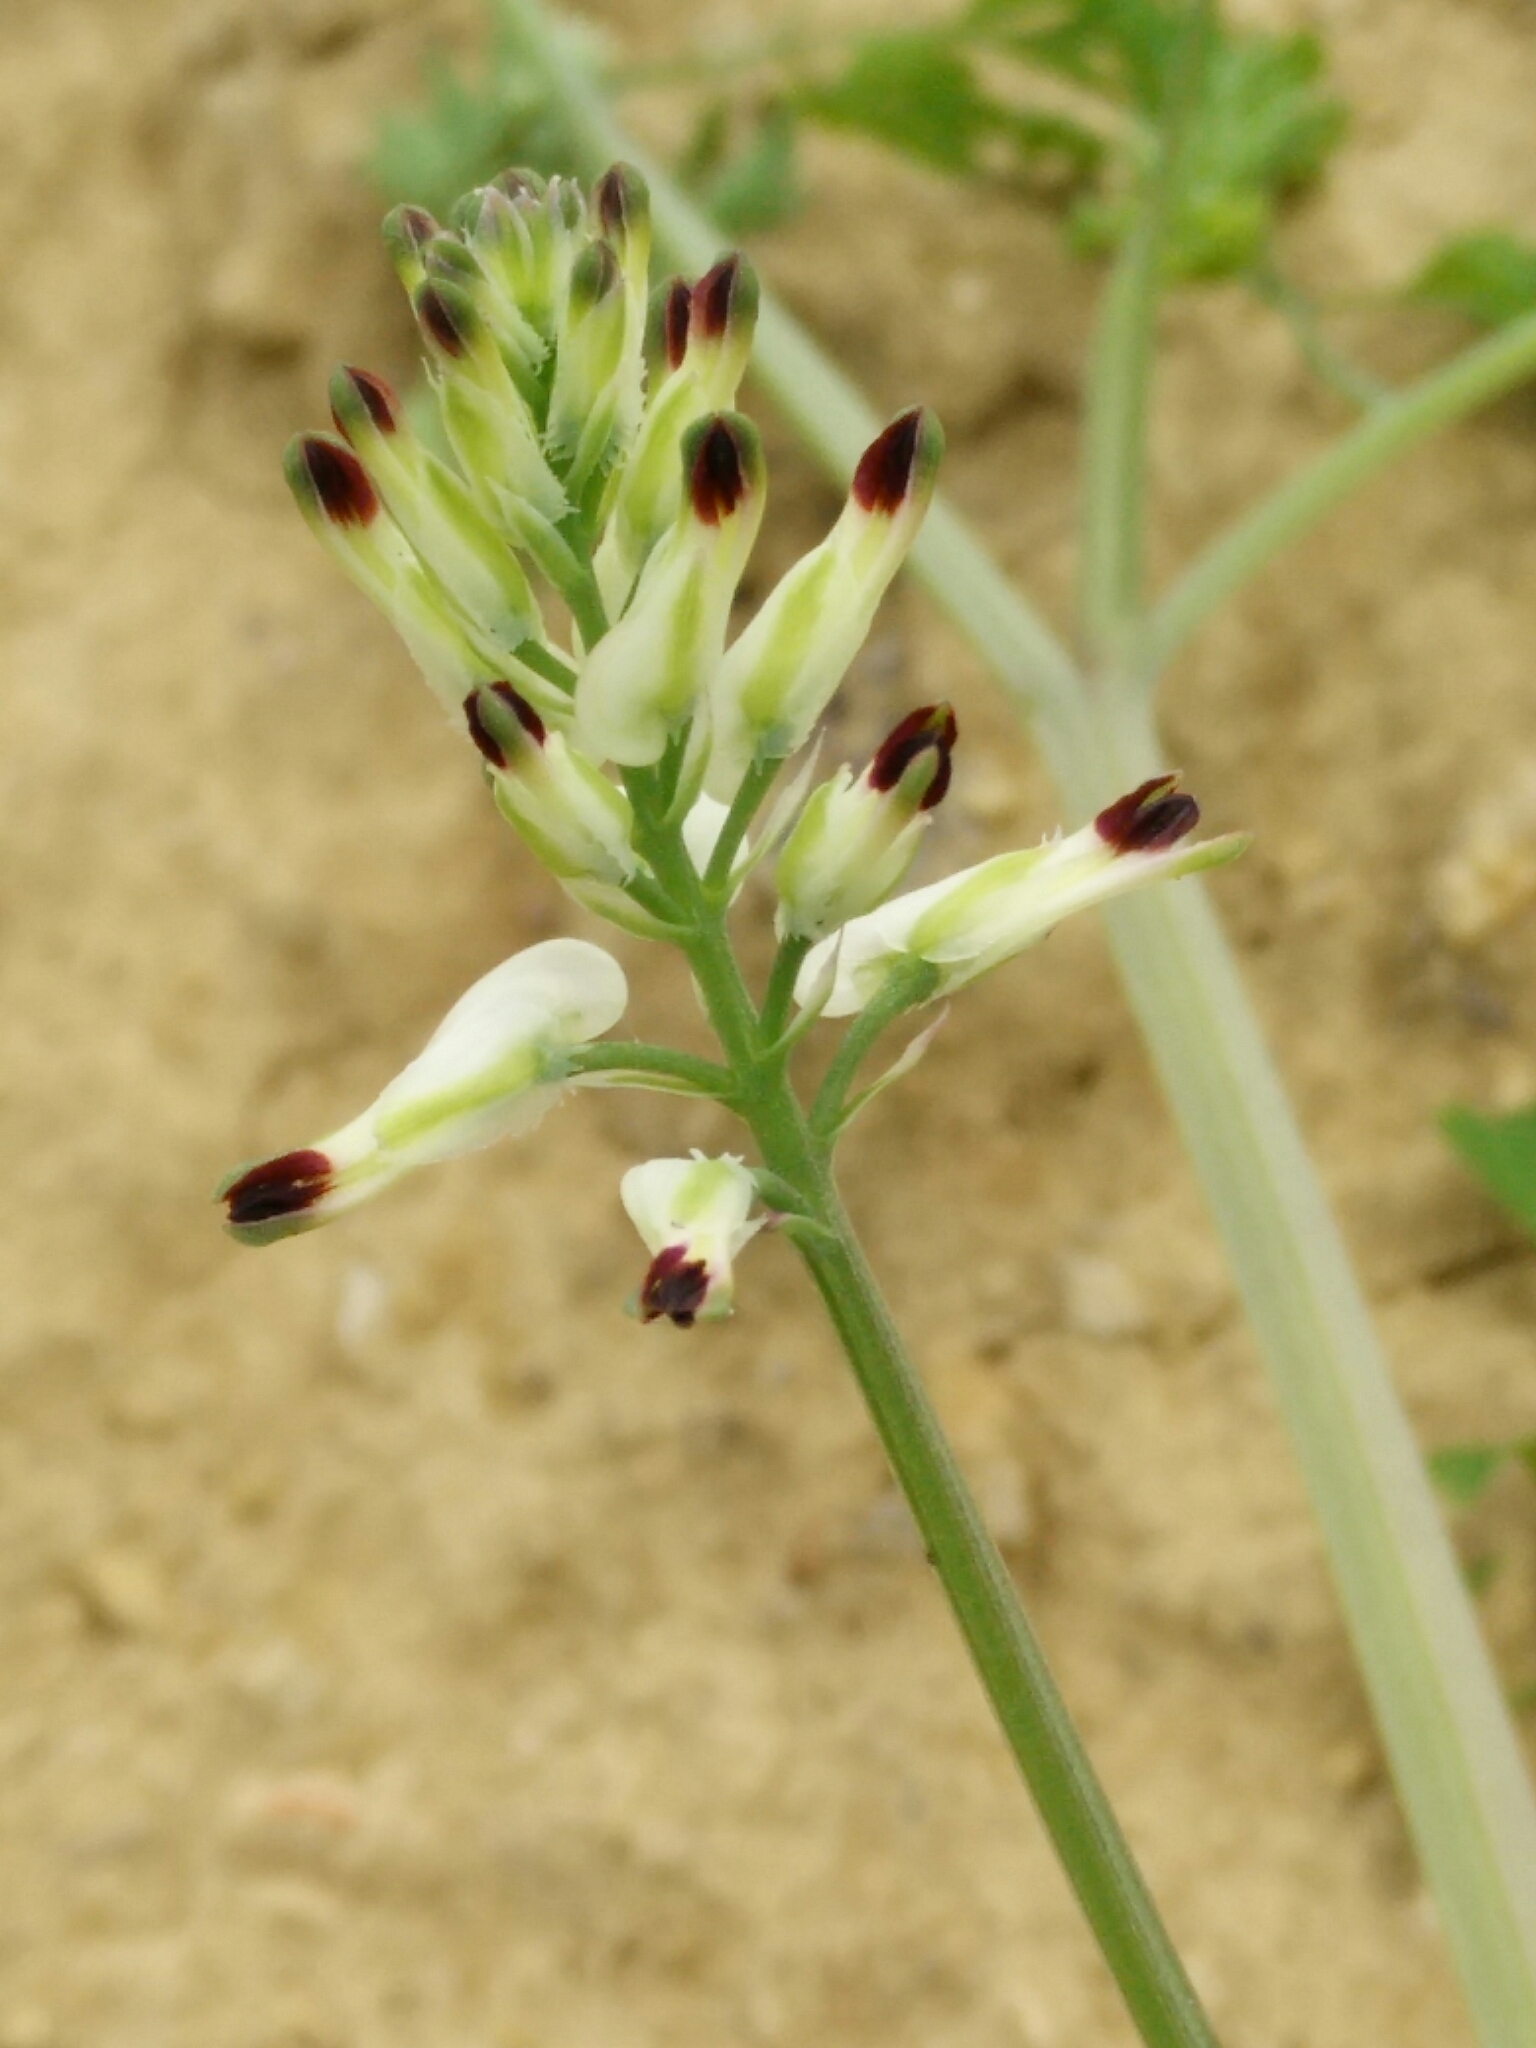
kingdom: Plantae
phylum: Tracheophyta
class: Magnoliopsida
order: Ranunculales
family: Papaveraceae
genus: Fumaria
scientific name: Fumaria capreolata
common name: White ramping-fumitory
